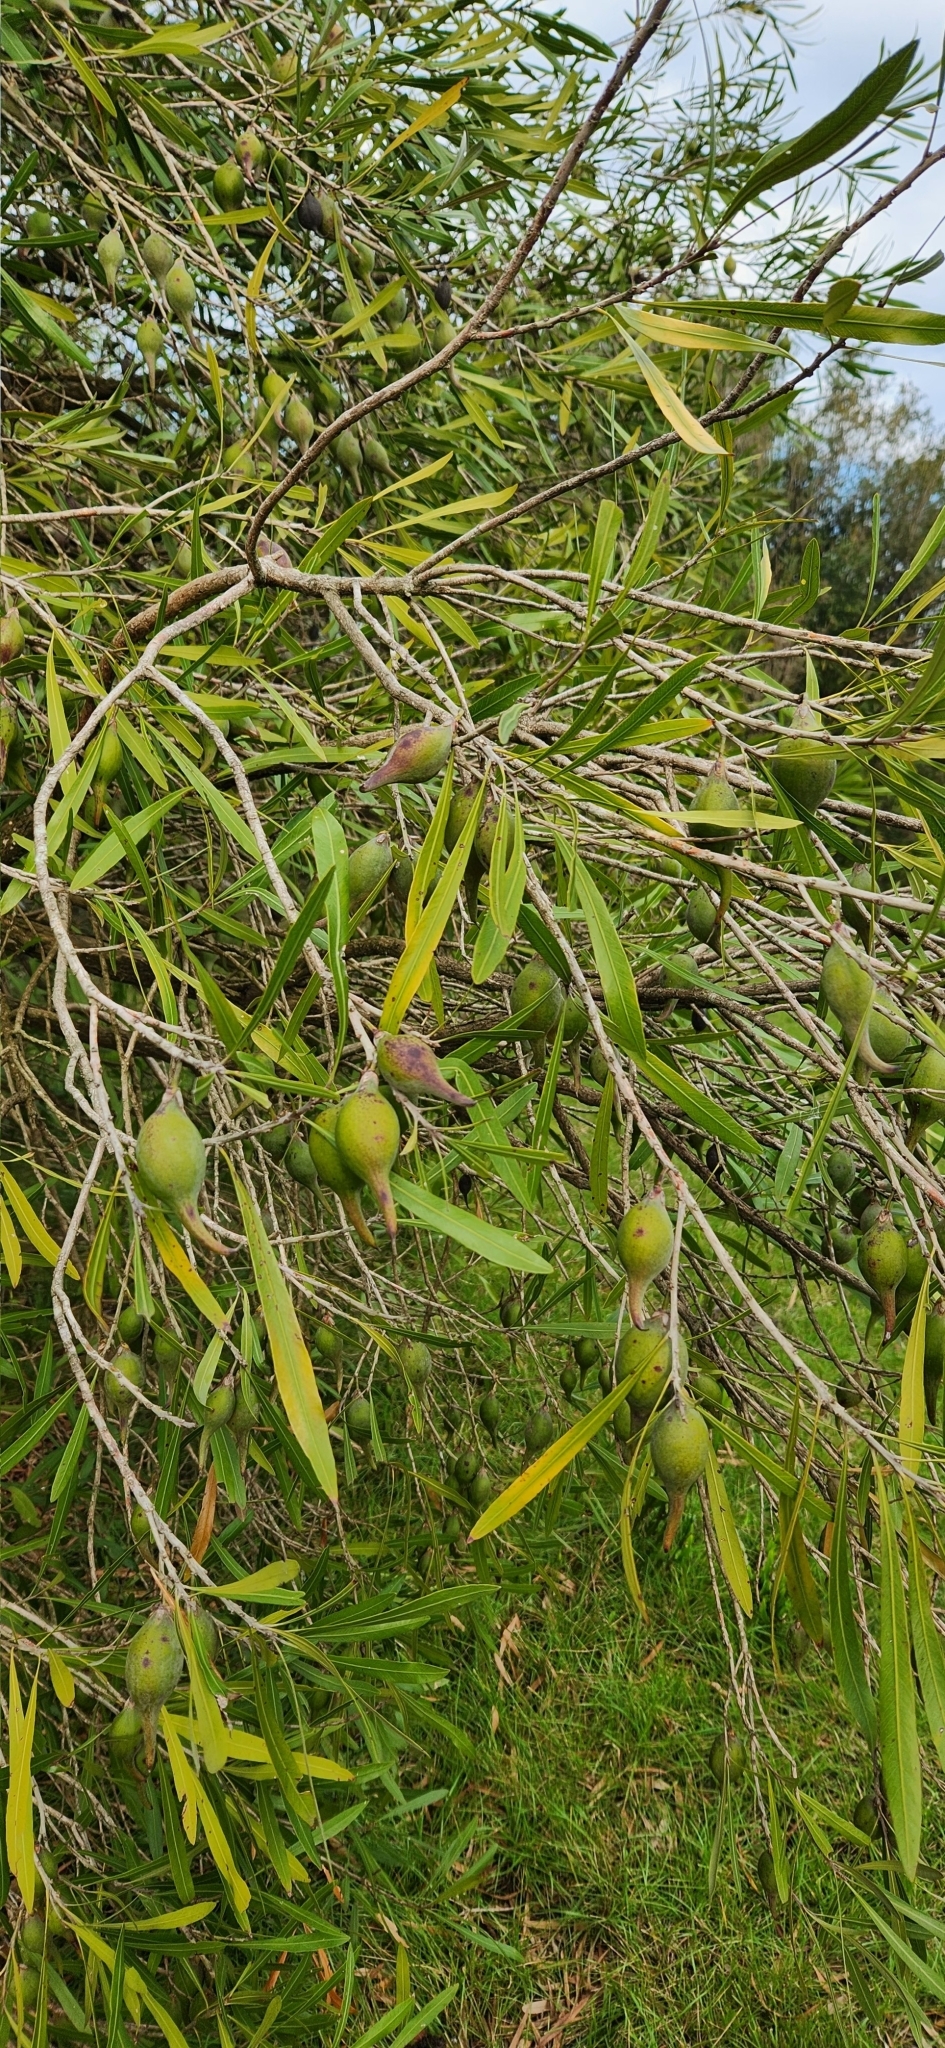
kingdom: Plantae
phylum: Tracheophyta
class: Magnoliopsida
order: Ericales
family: Sapotaceae
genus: Labatia
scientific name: Labatia salicifolia
